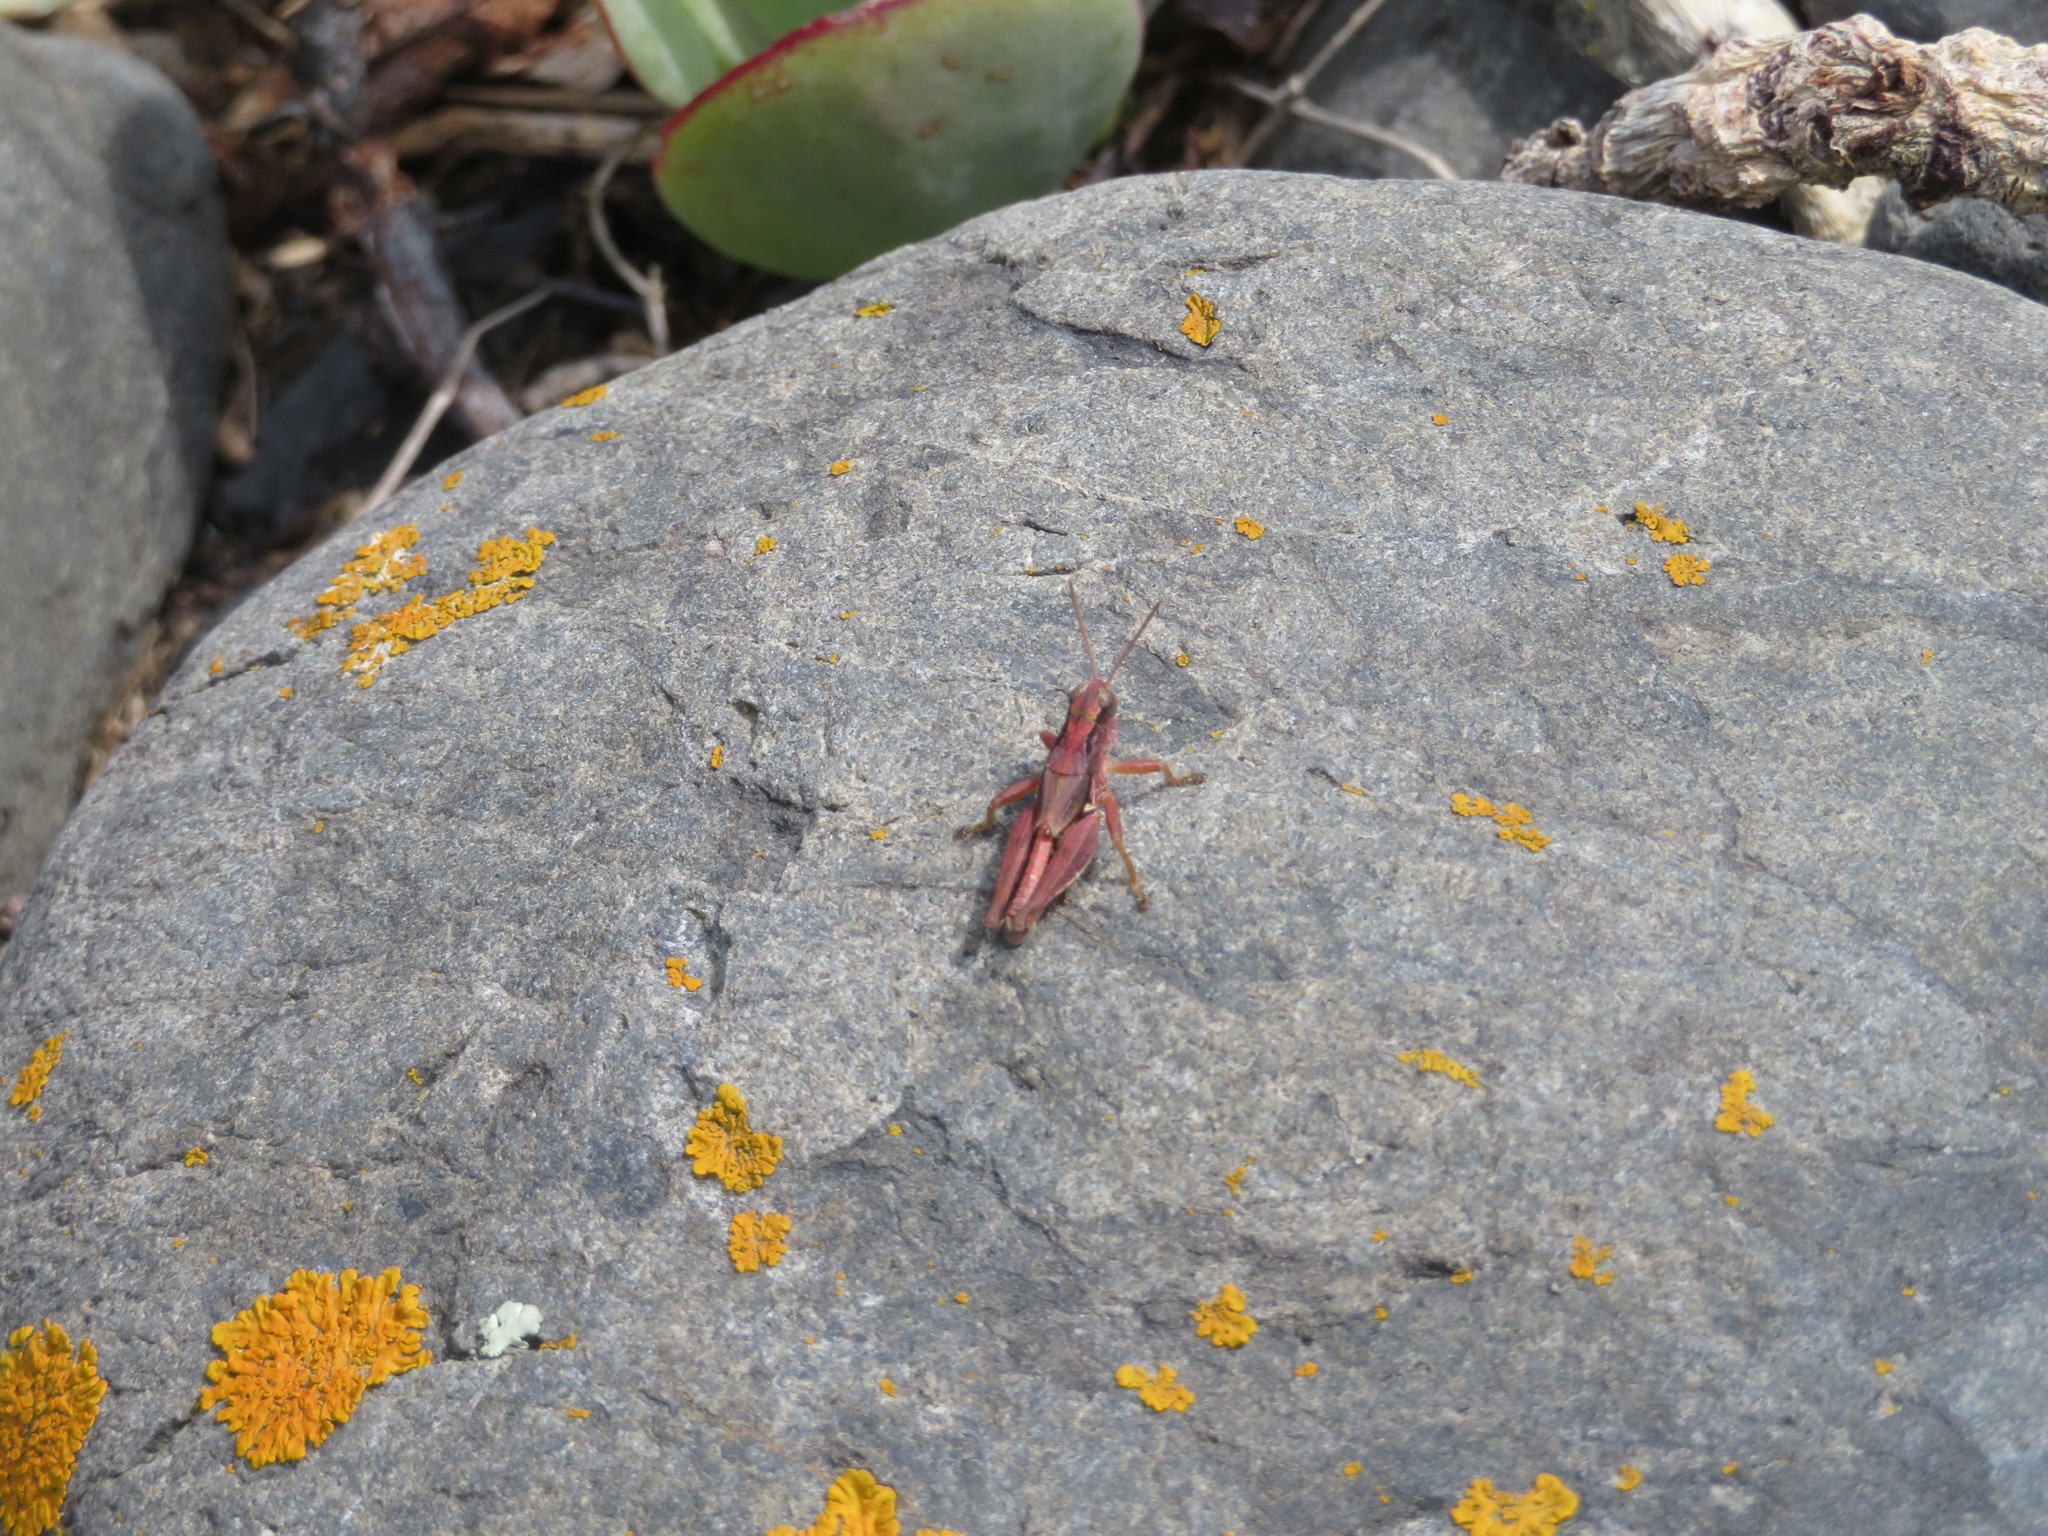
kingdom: Animalia
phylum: Arthropoda
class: Insecta
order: Orthoptera
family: Acrididae
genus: Phaulacridium
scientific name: Phaulacridium marginale
